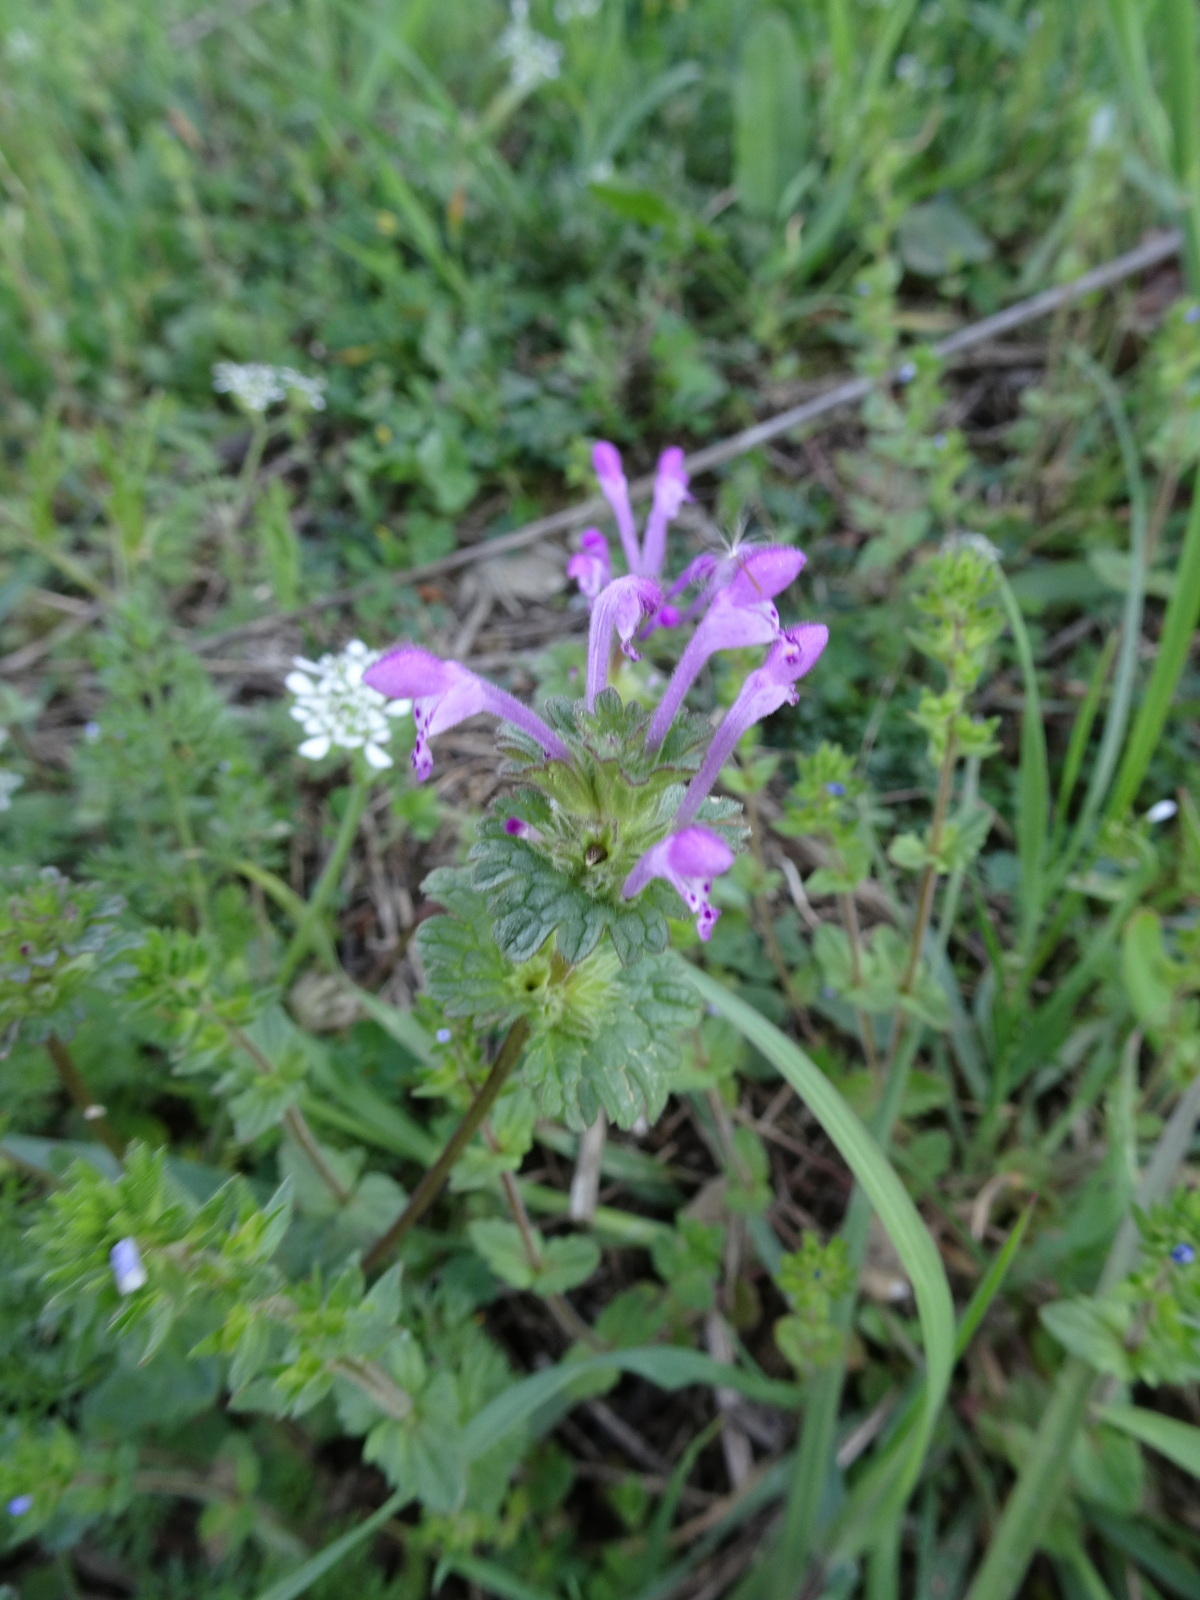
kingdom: Plantae
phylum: Tracheophyta
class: Magnoliopsida
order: Lamiales
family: Lamiaceae
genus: Lamium
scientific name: Lamium amplexicaule
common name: Henbit dead-nettle
